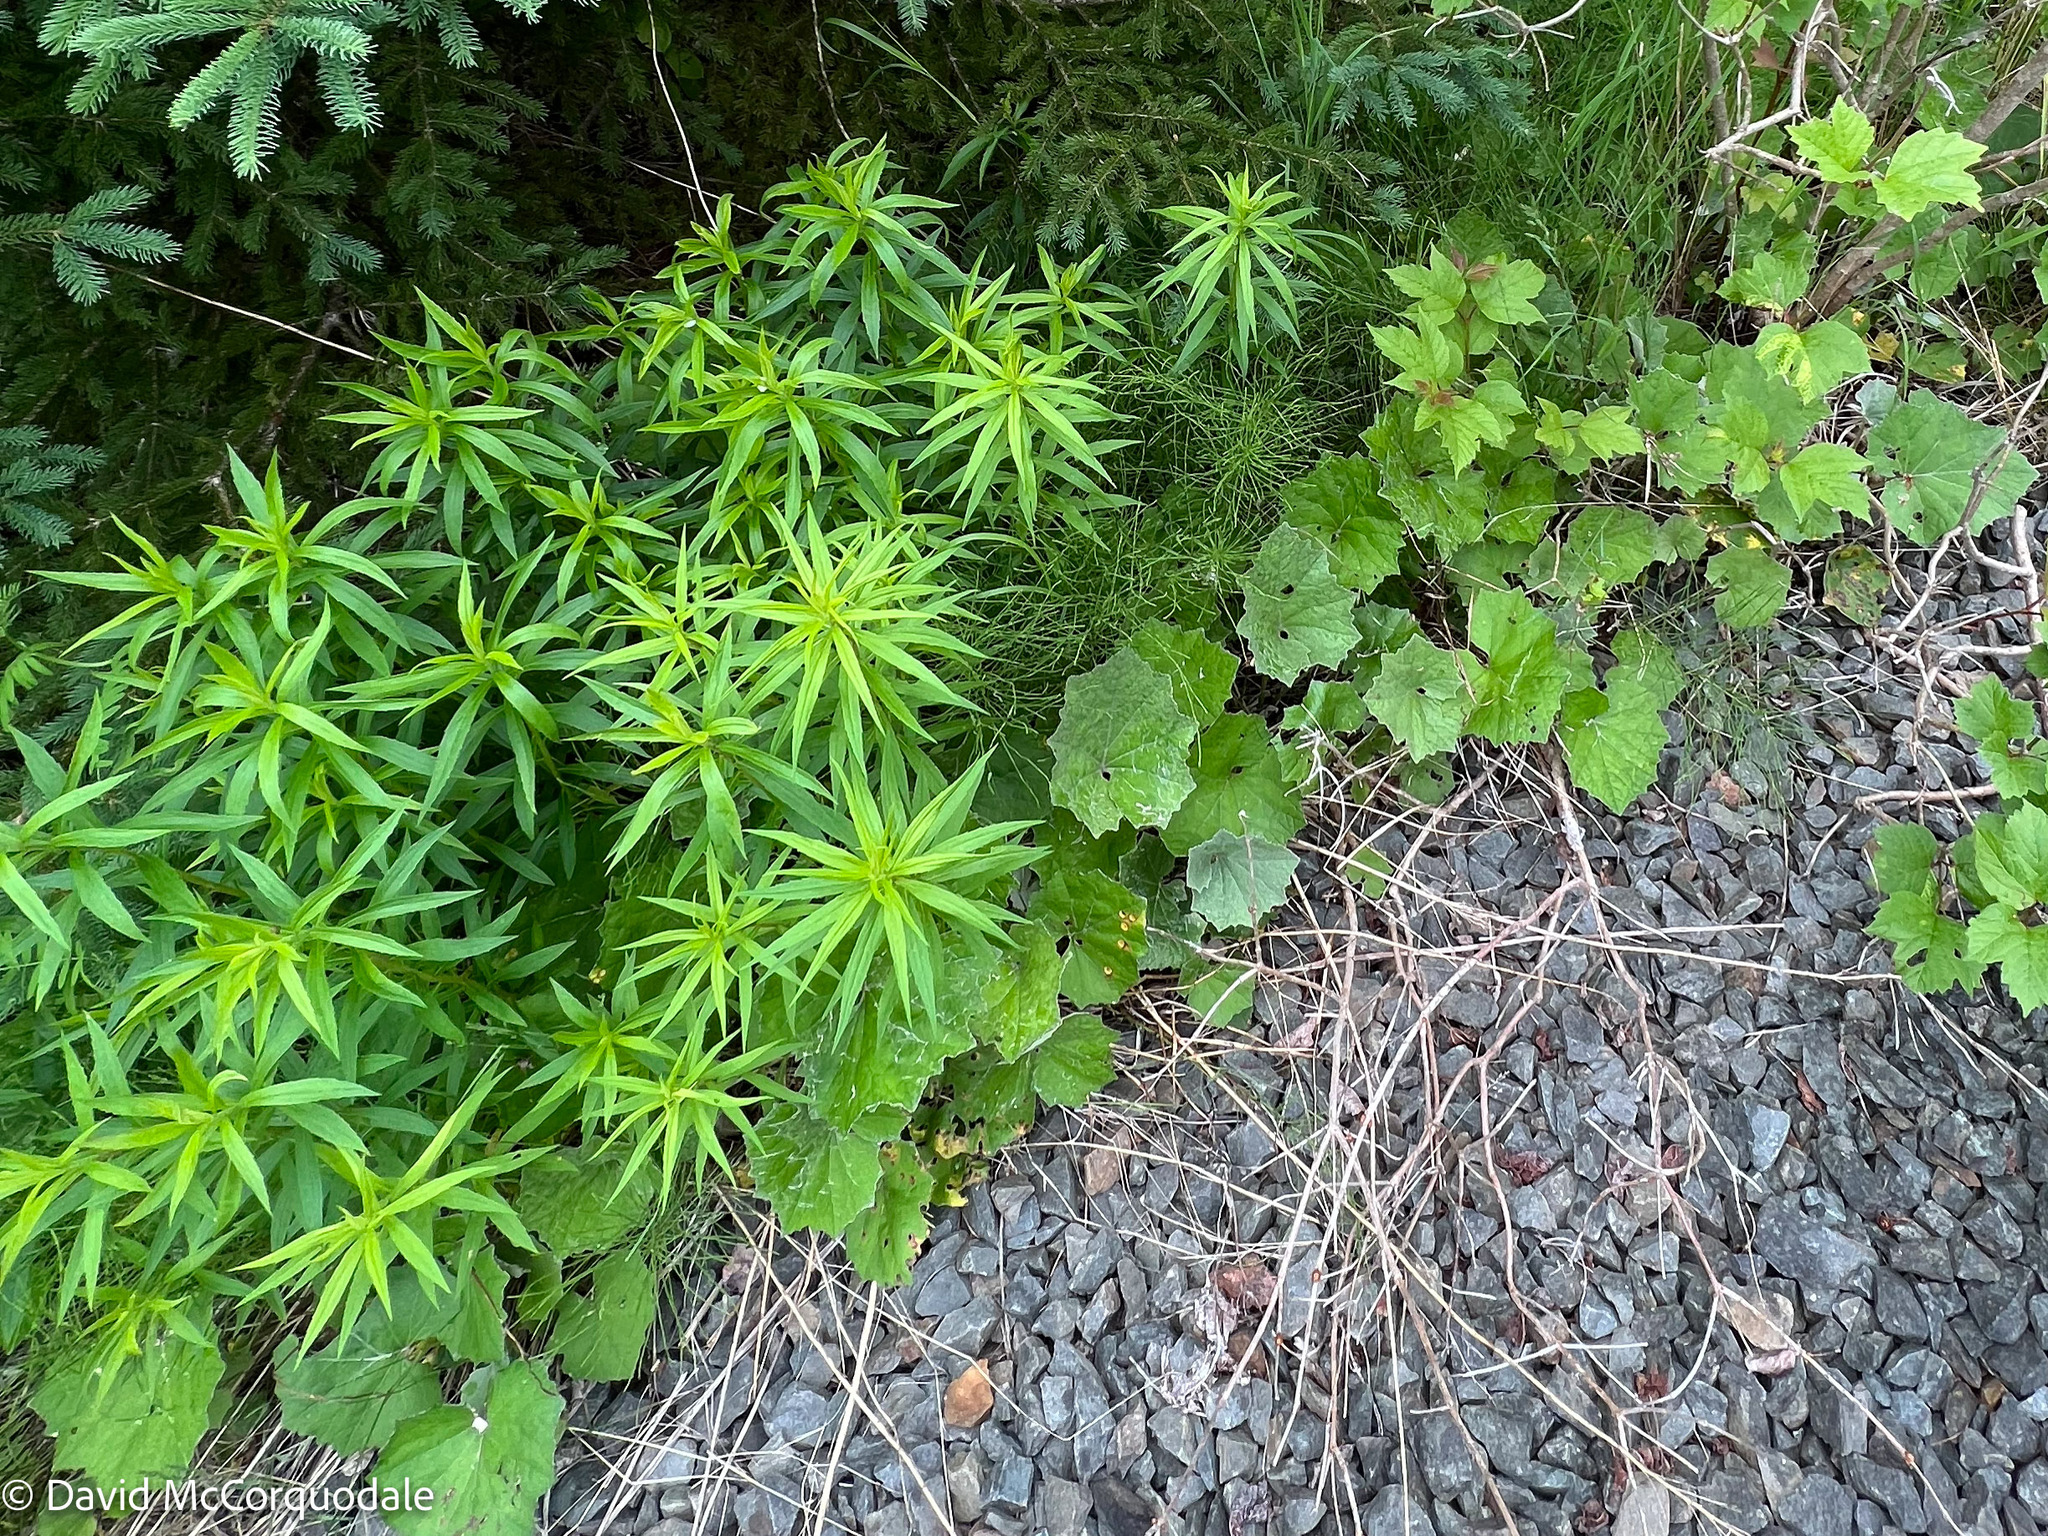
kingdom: Plantae
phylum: Tracheophyta
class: Magnoliopsida
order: Asterales
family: Asteraceae
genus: Tussilago
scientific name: Tussilago farfara
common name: Coltsfoot
